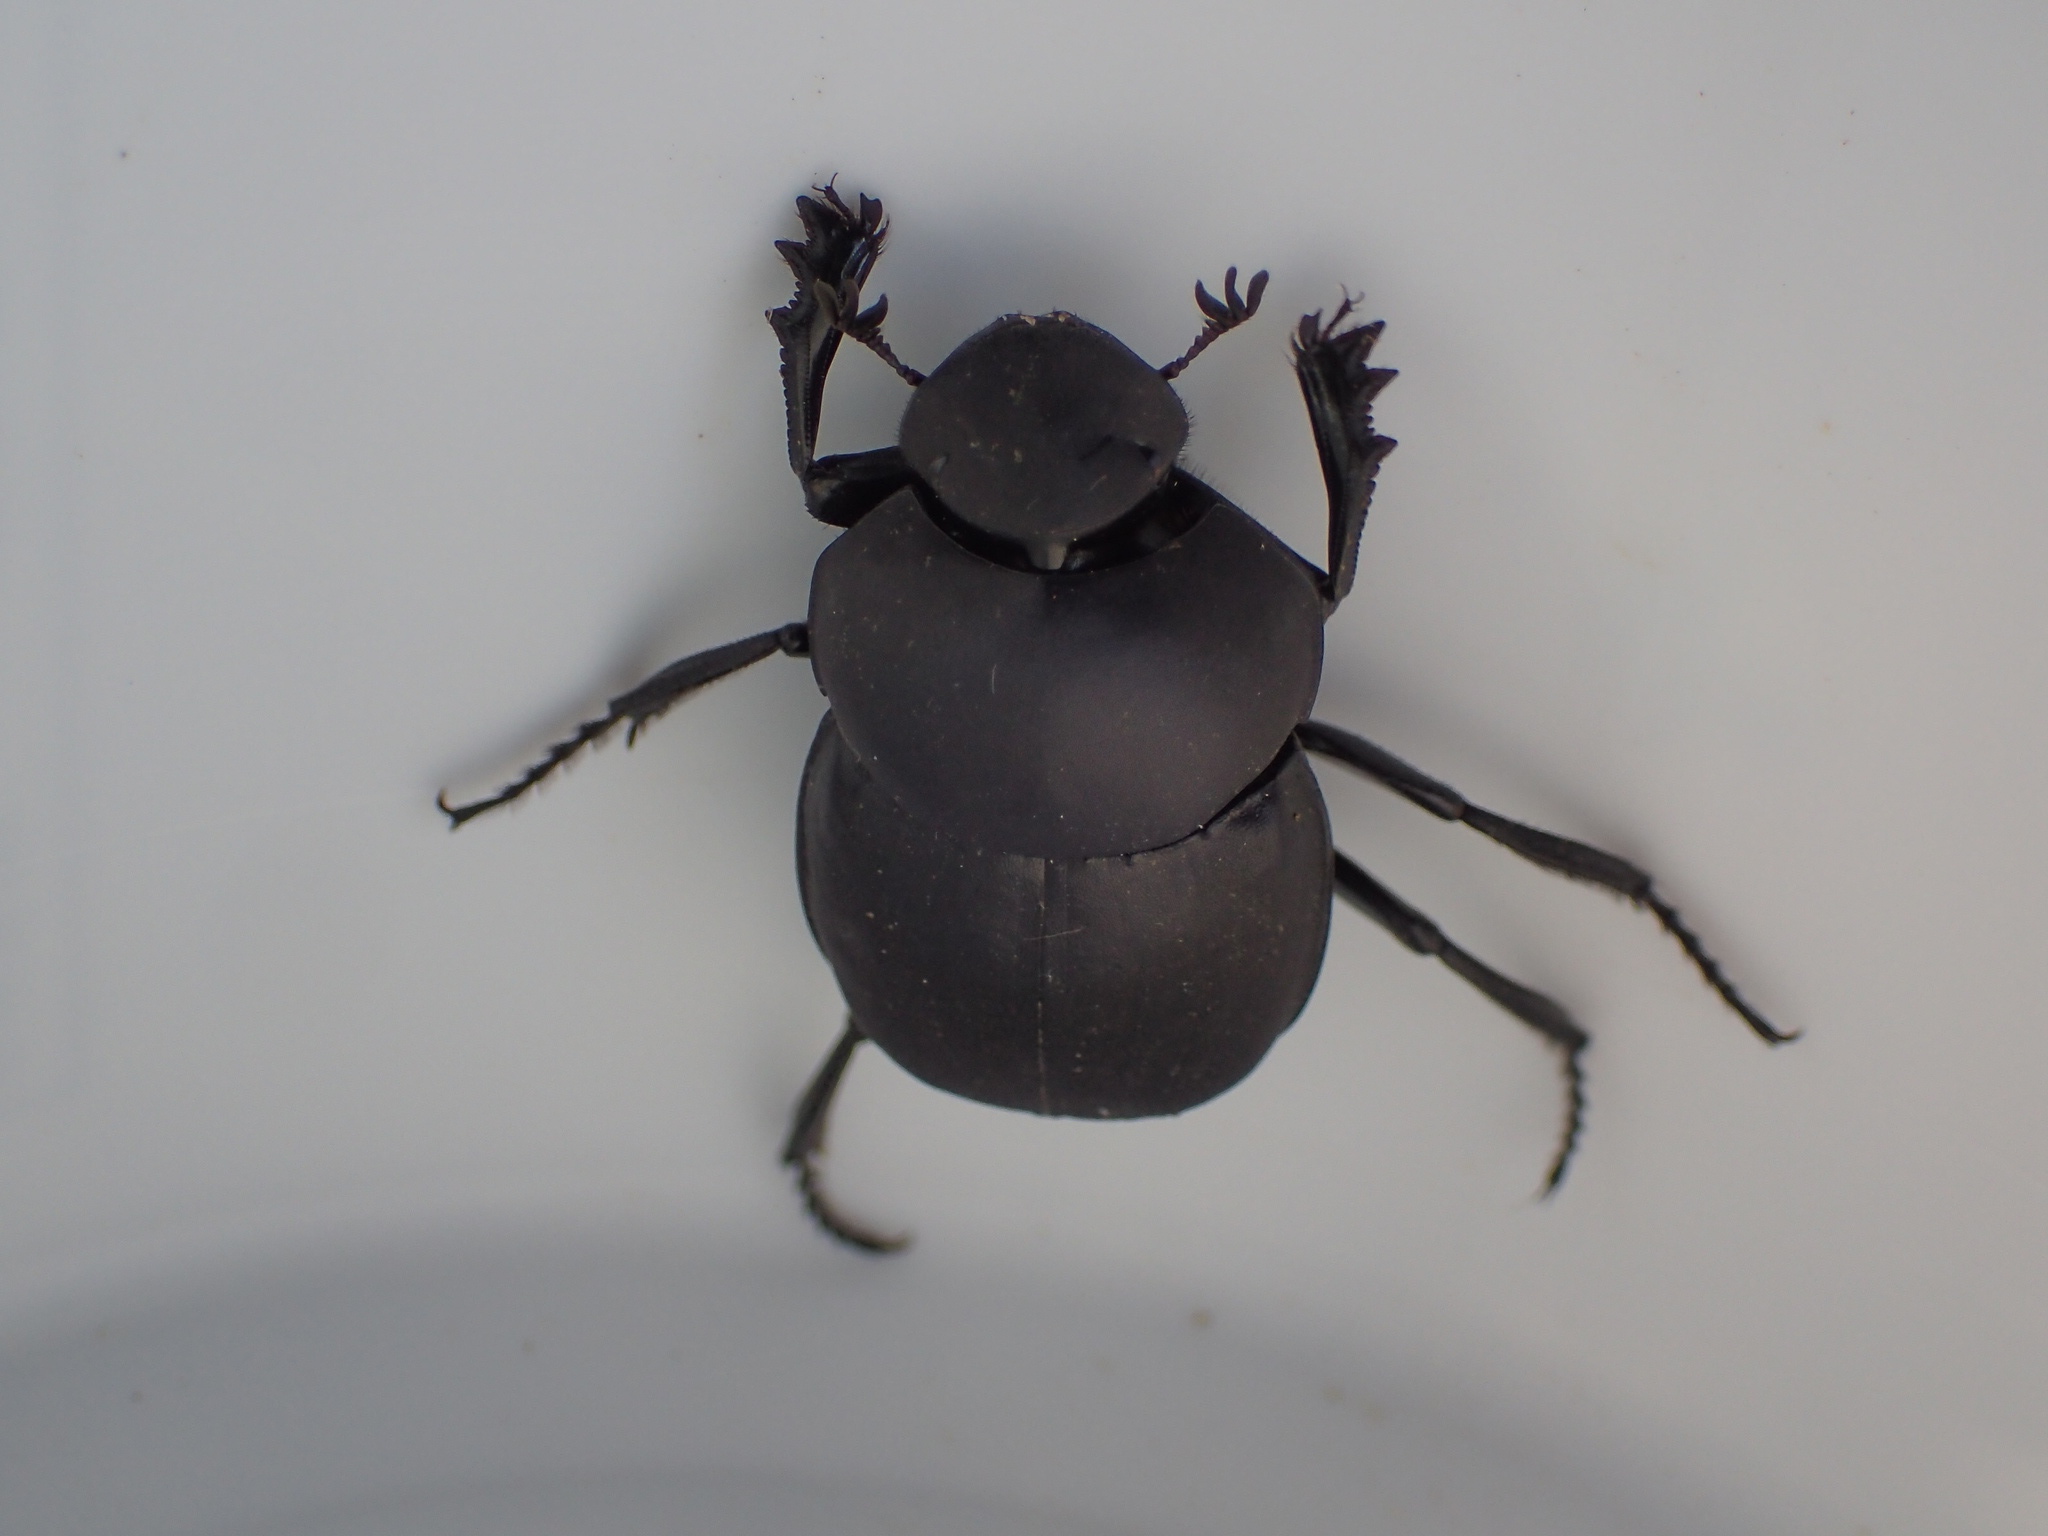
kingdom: Animalia
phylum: Arthropoda
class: Insecta
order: Coleoptera
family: Scarabaeidae
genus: Canthon
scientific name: Canthon pilularius
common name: Dull tumblebug
